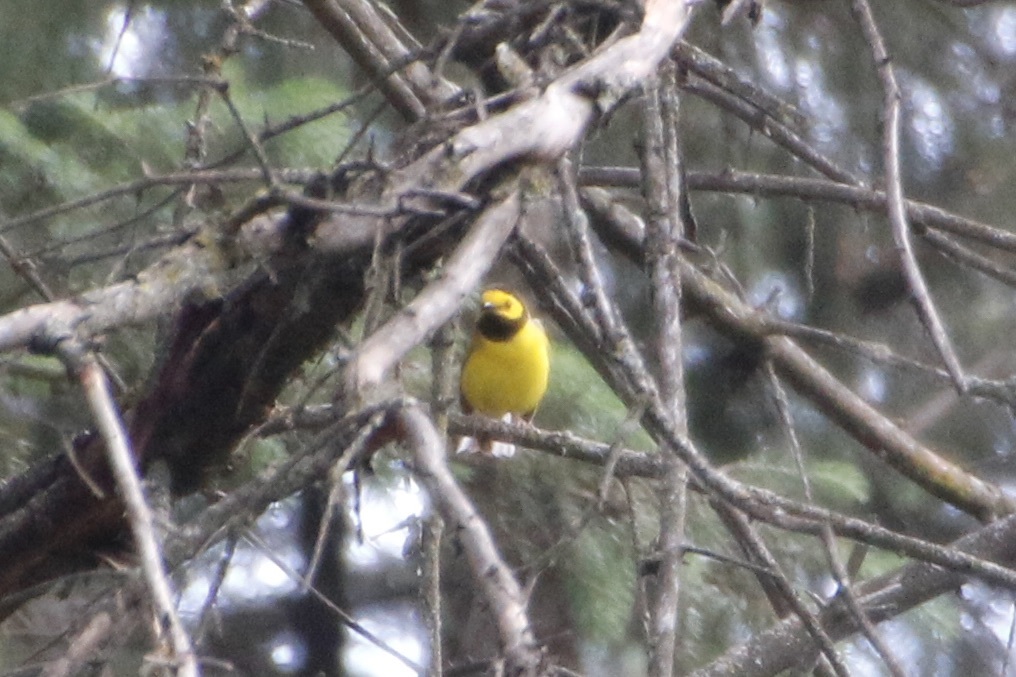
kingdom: Animalia
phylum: Chordata
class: Aves
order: Passeriformes
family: Parulidae
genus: Setophaga
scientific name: Setophaga citrina
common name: Hooded warbler
